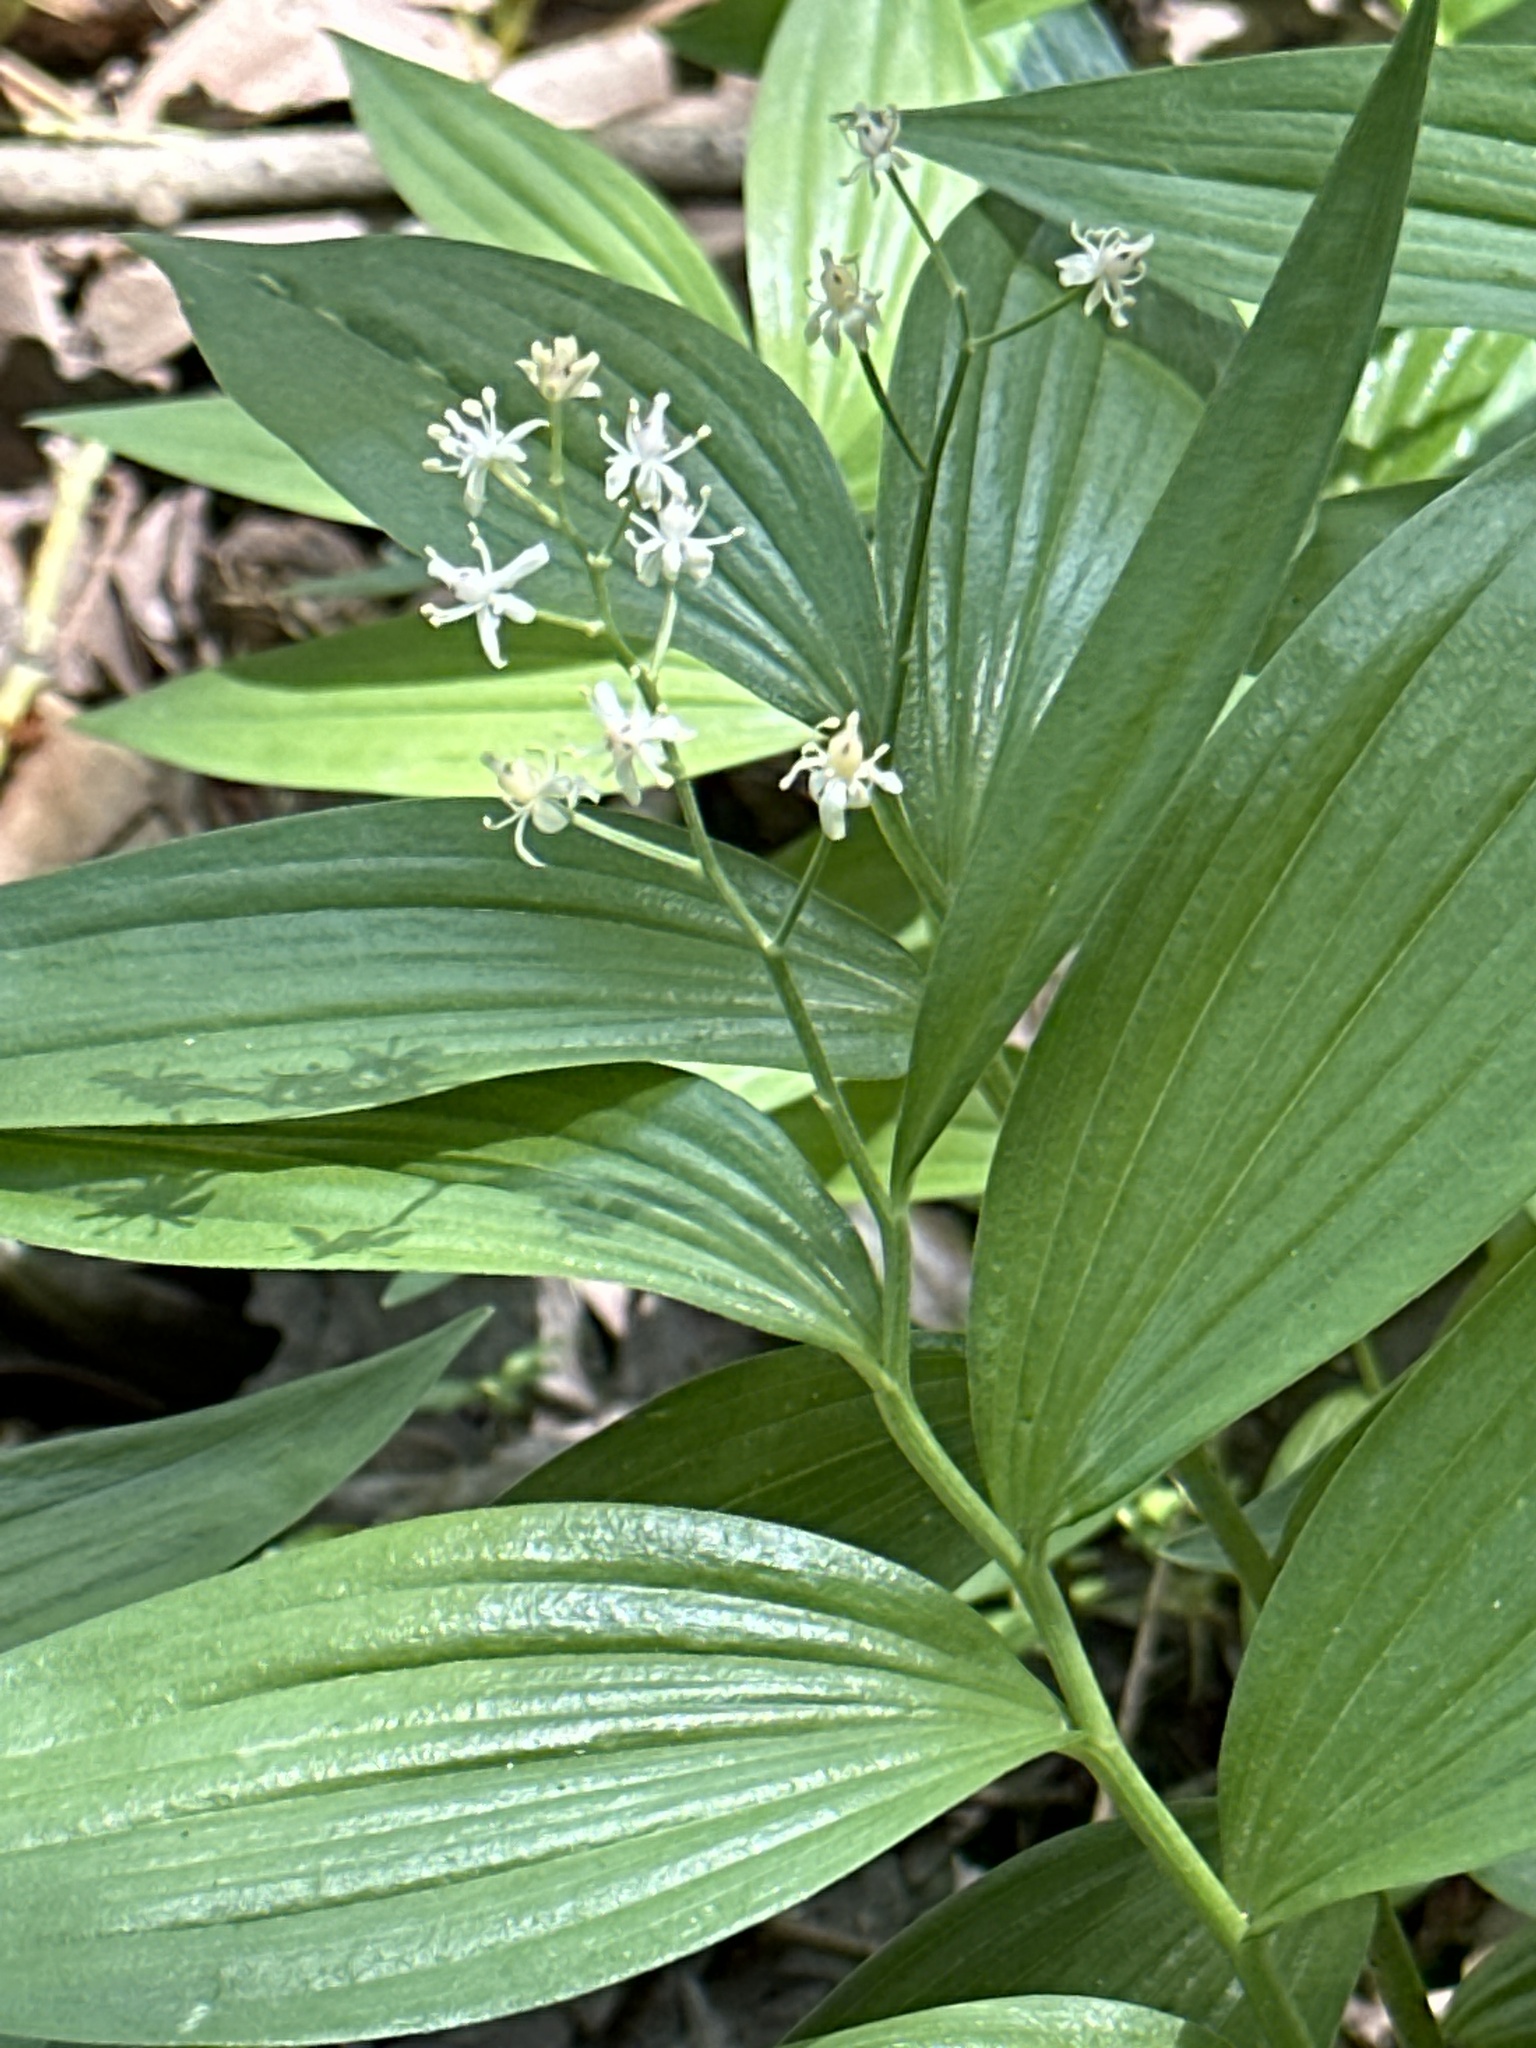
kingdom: Plantae
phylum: Tracheophyta
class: Liliopsida
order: Asparagales
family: Asparagaceae
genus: Maianthemum
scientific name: Maianthemum stellatum
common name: Little false solomon's seal
